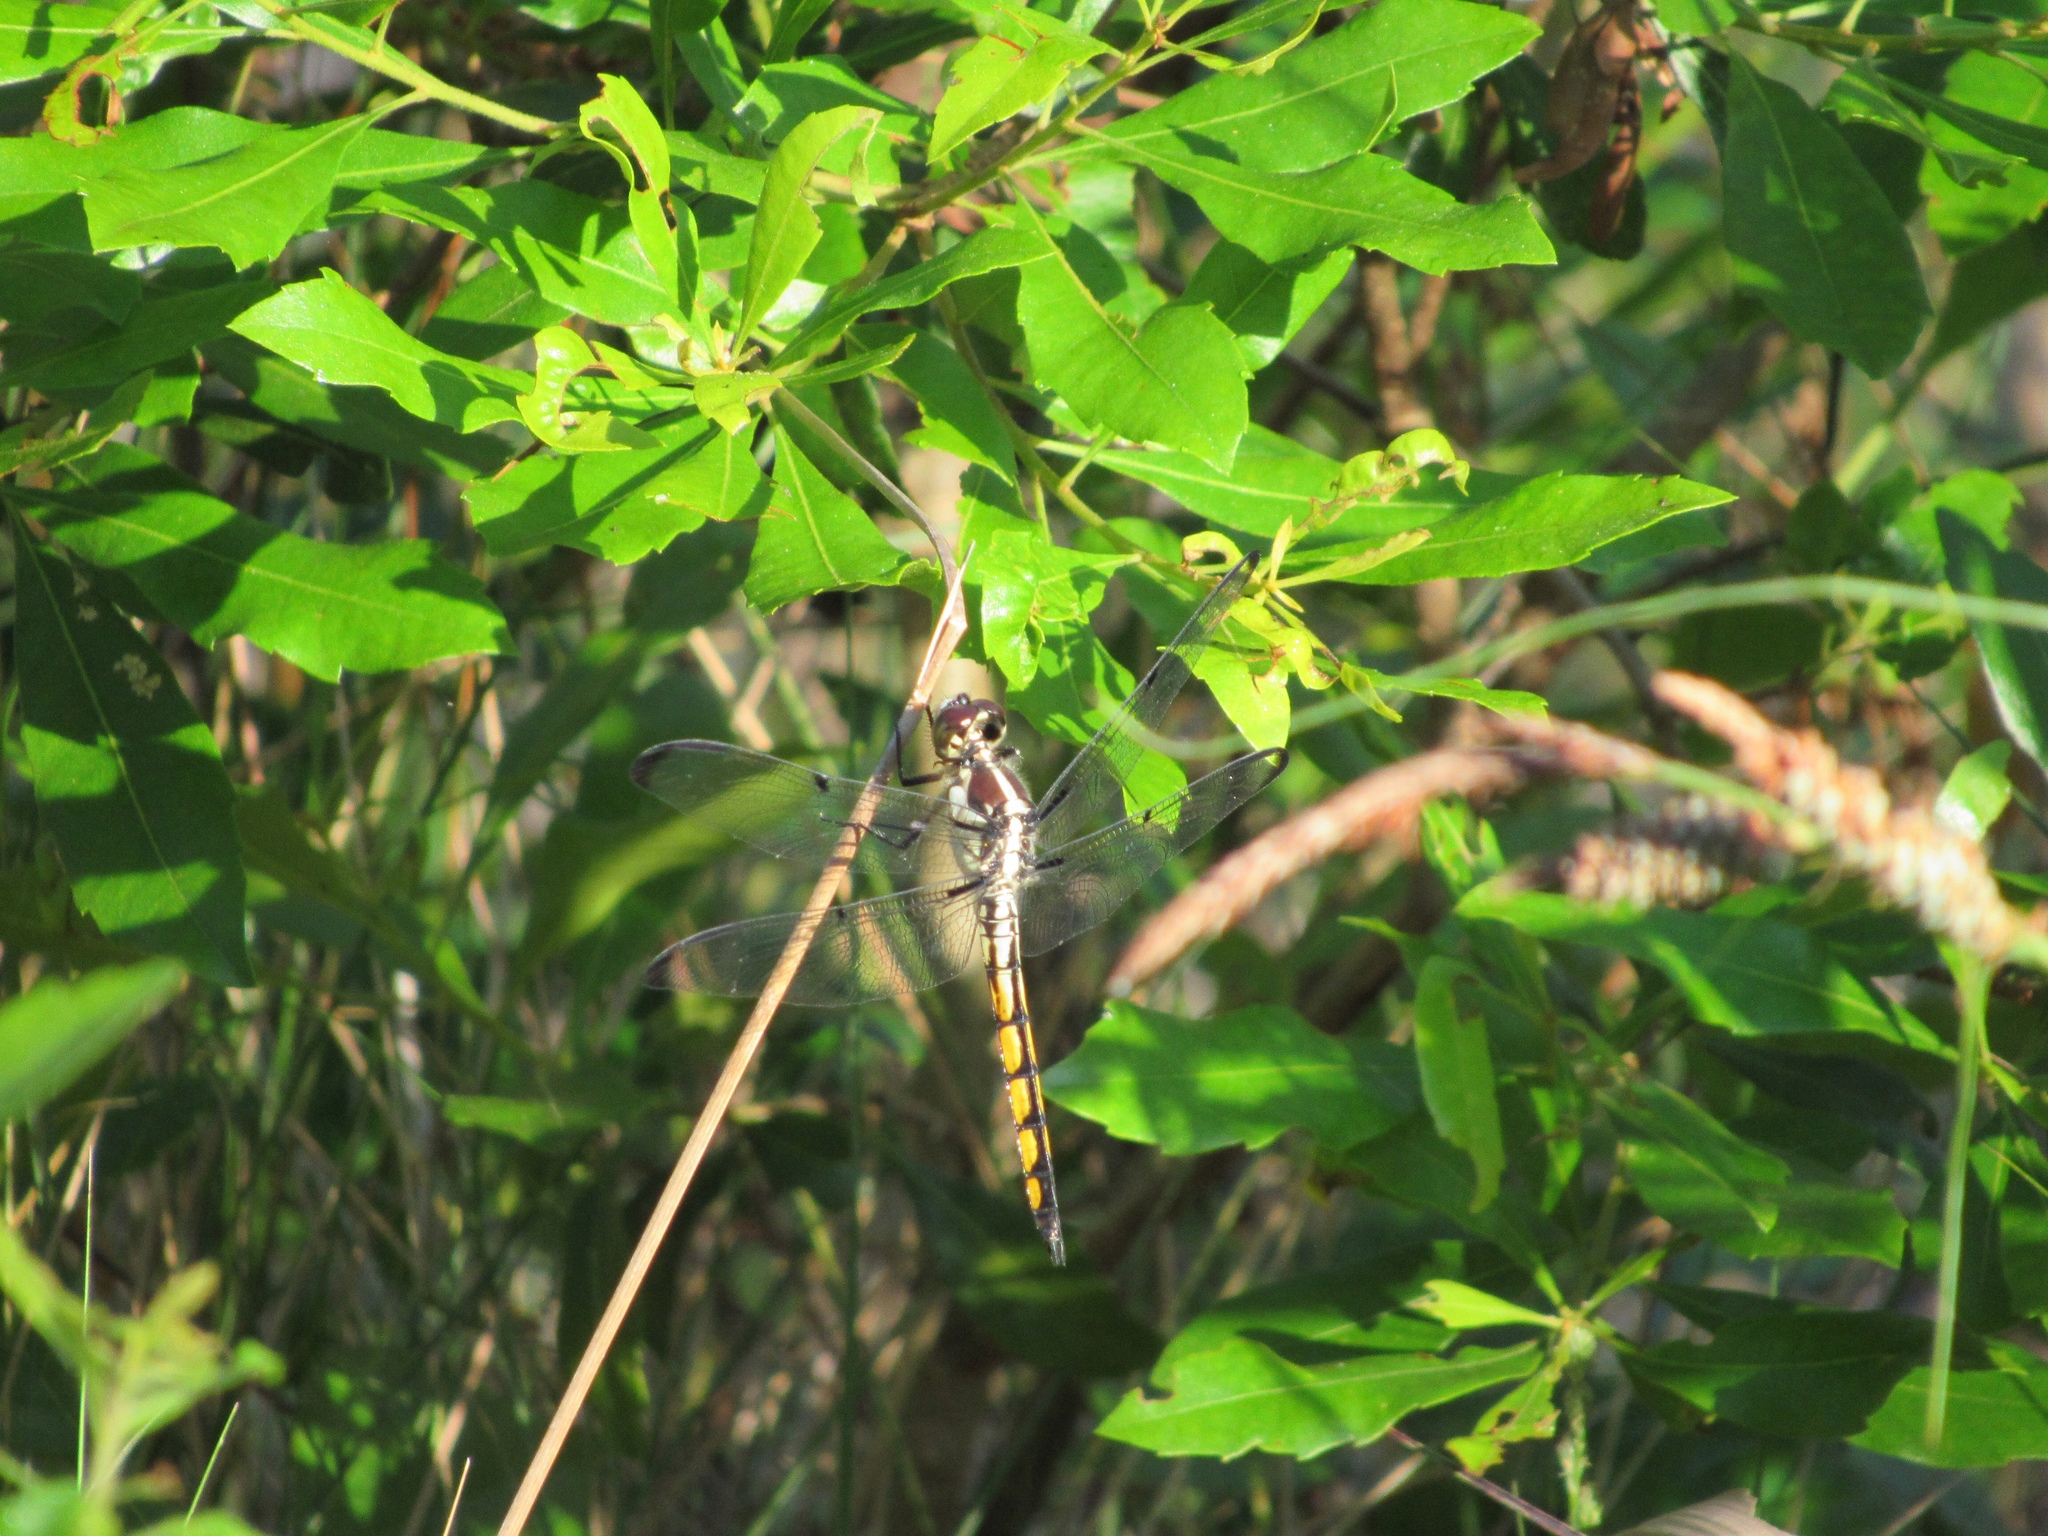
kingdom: Animalia
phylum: Arthropoda
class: Insecta
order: Odonata
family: Libellulidae
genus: Libellula
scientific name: Libellula vibrans
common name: Great blue skimmer
